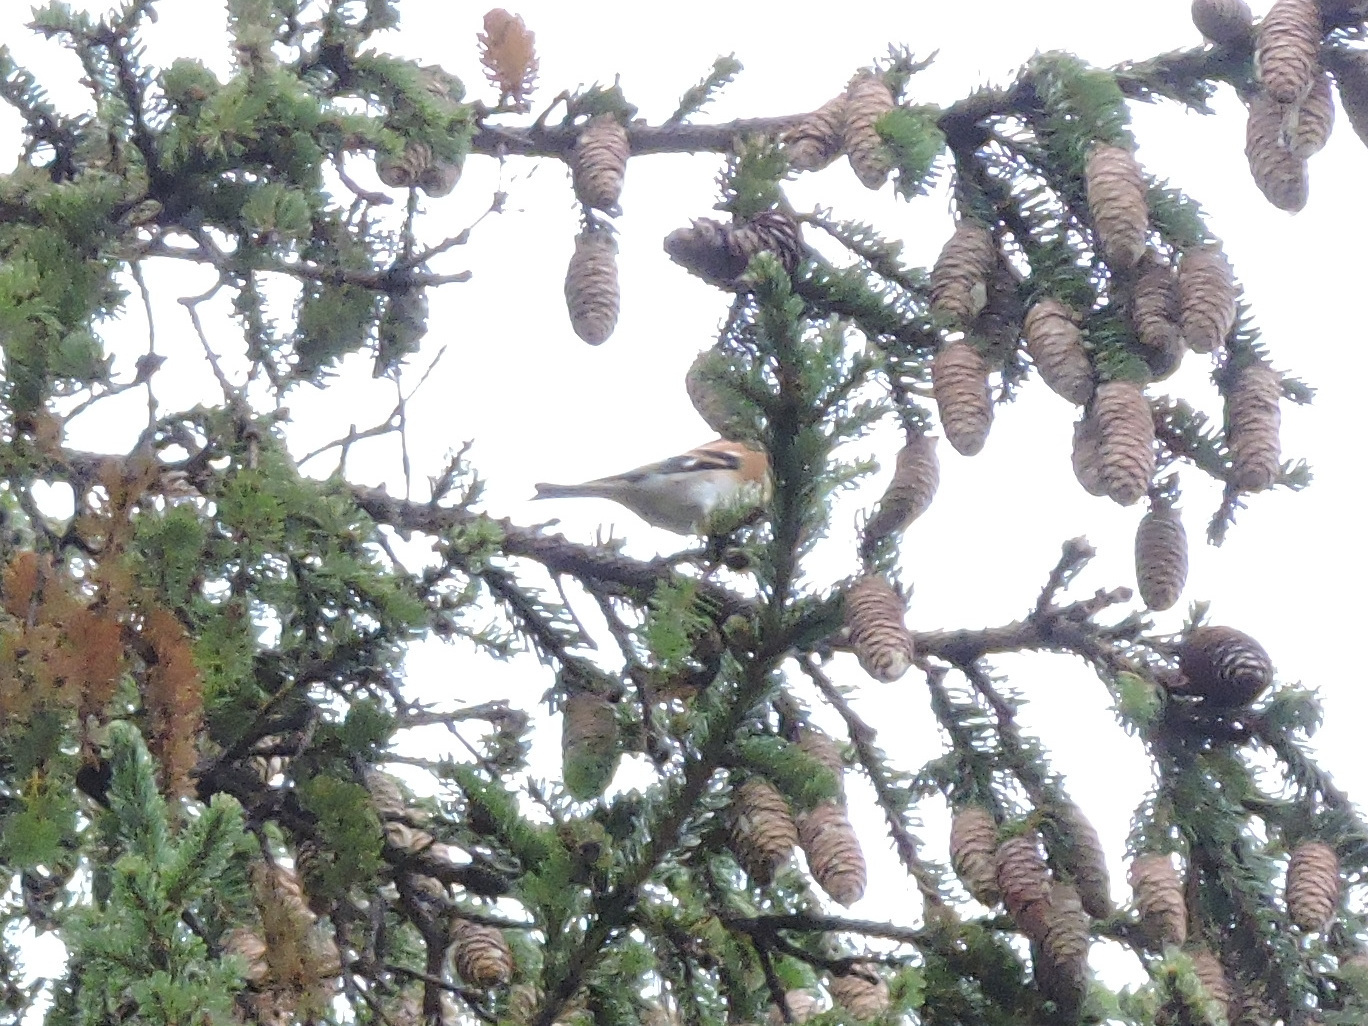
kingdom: Animalia
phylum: Chordata
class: Aves
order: Passeriformes
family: Fringillidae
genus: Fringilla
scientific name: Fringilla montifringilla
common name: Brambling
